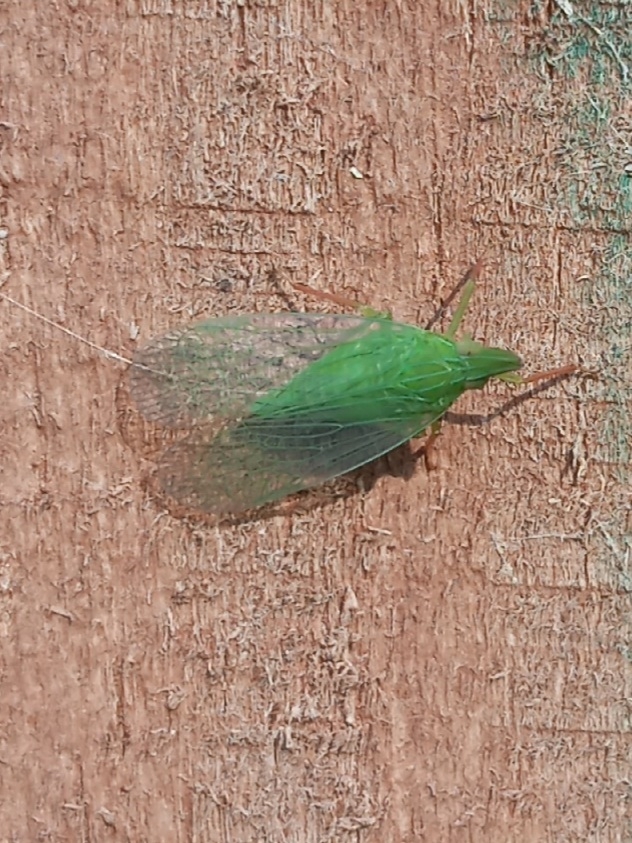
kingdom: Animalia
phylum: Arthropoda
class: Insecta
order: Hemiptera
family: Dictyopharidae
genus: Rhynchomitra
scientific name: Rhynchomitra recurva
